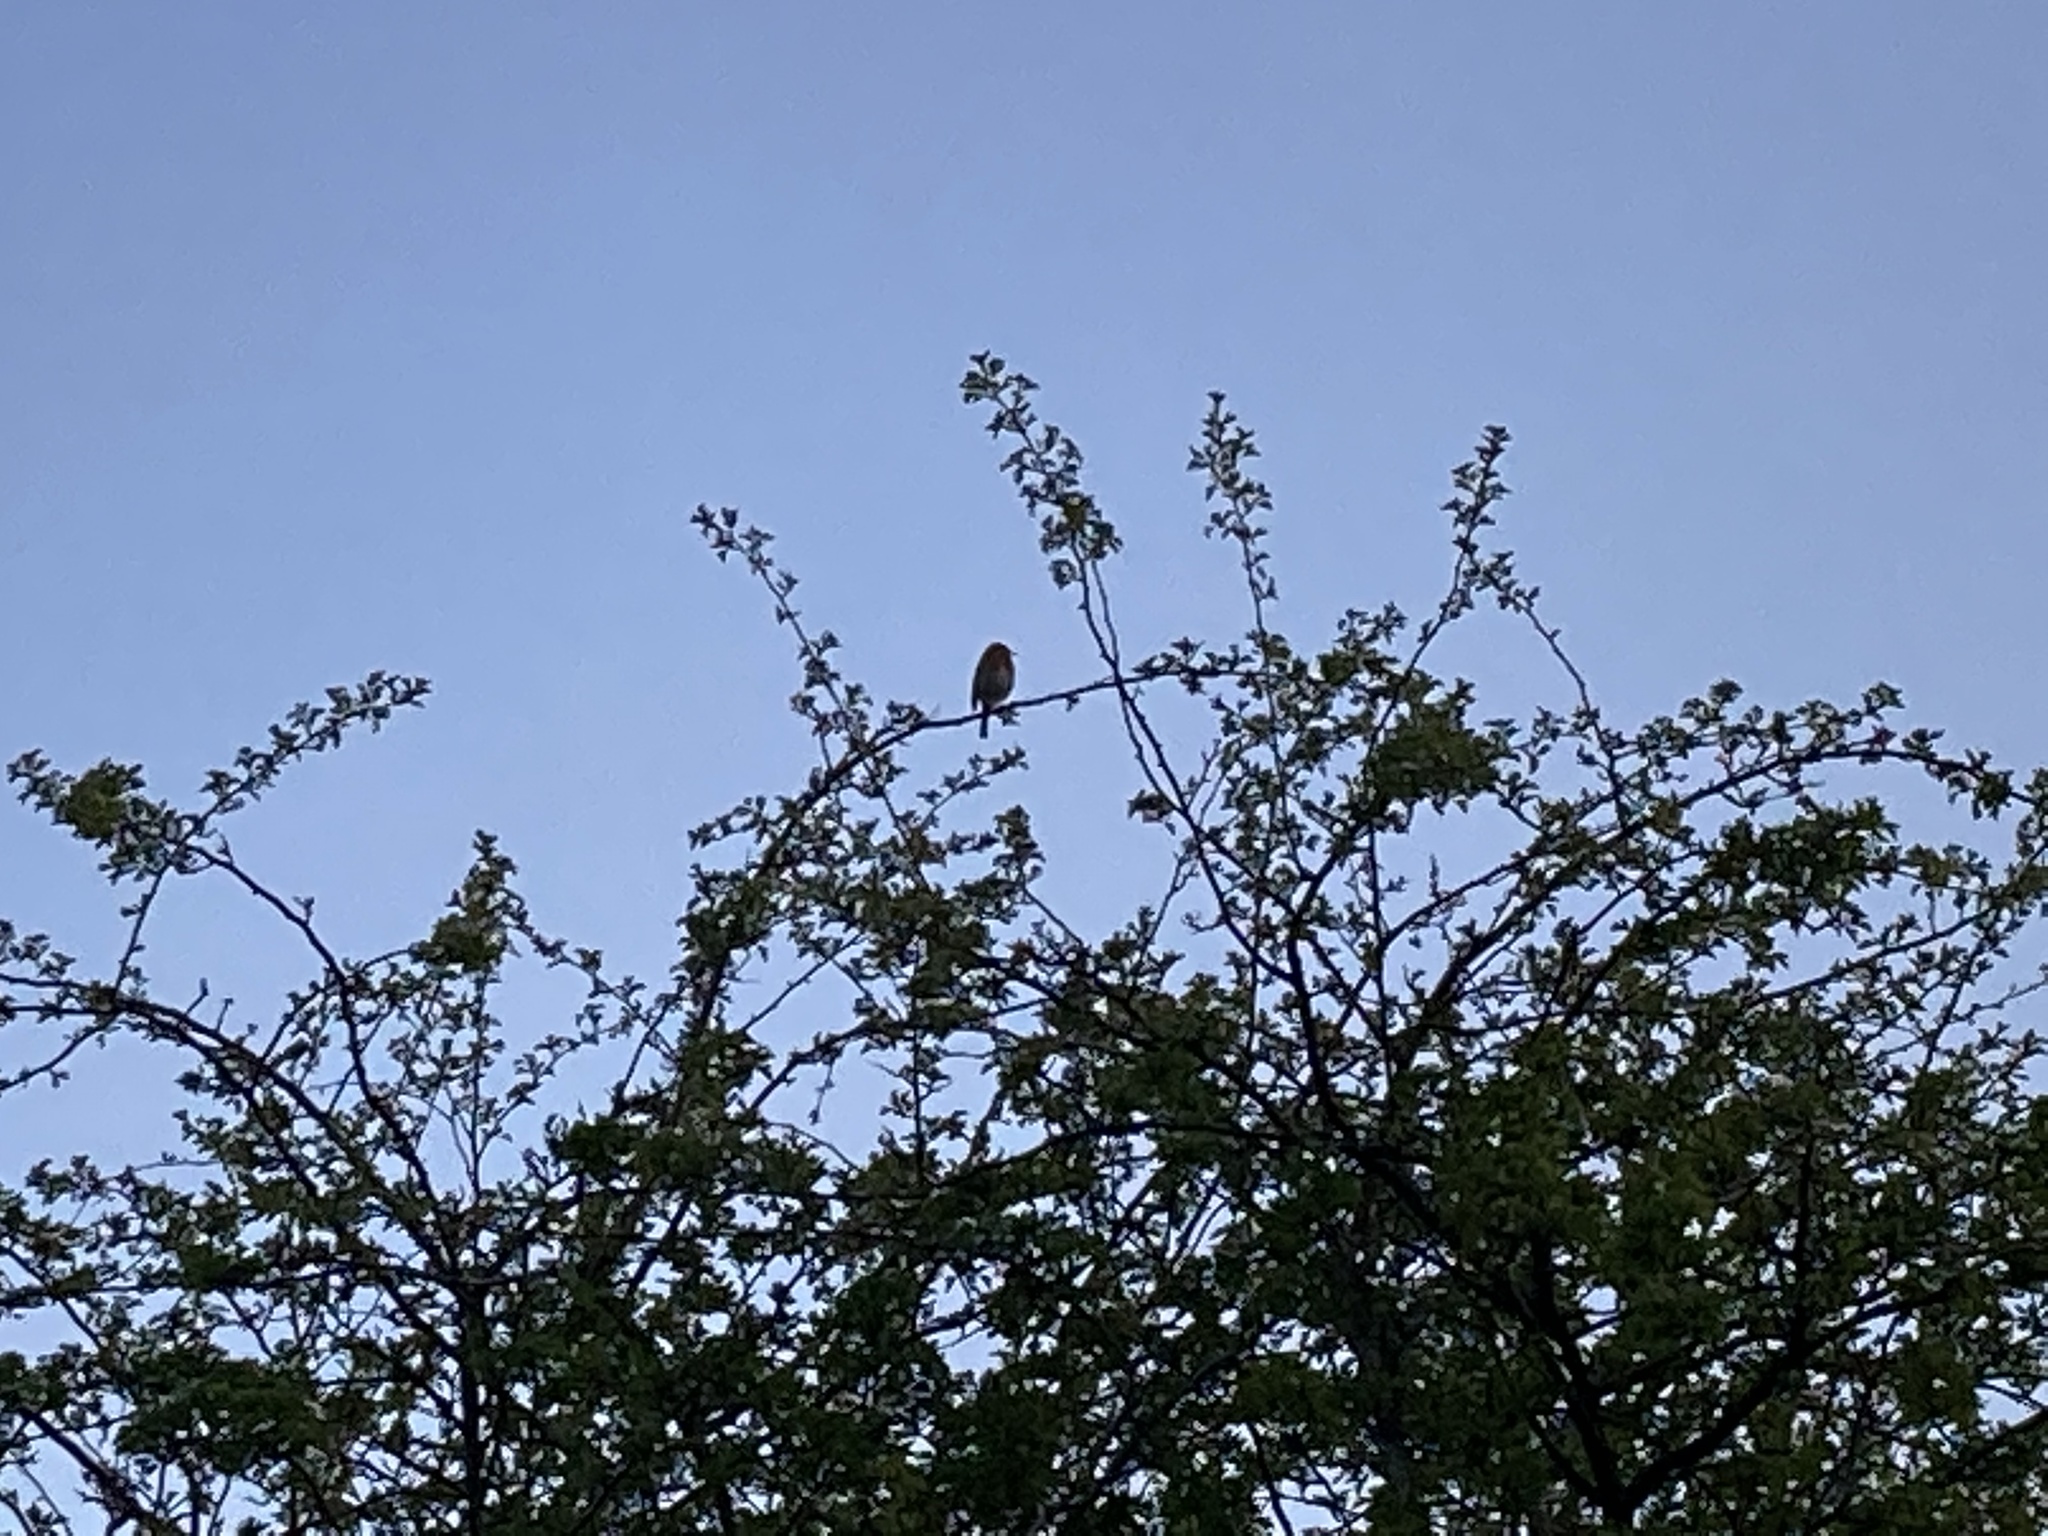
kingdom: Animalia
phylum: Chordata
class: Aves
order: Passeriformes
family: Muscicapidae
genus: Erithacus
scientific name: Erithacus rubecula
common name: European robin
